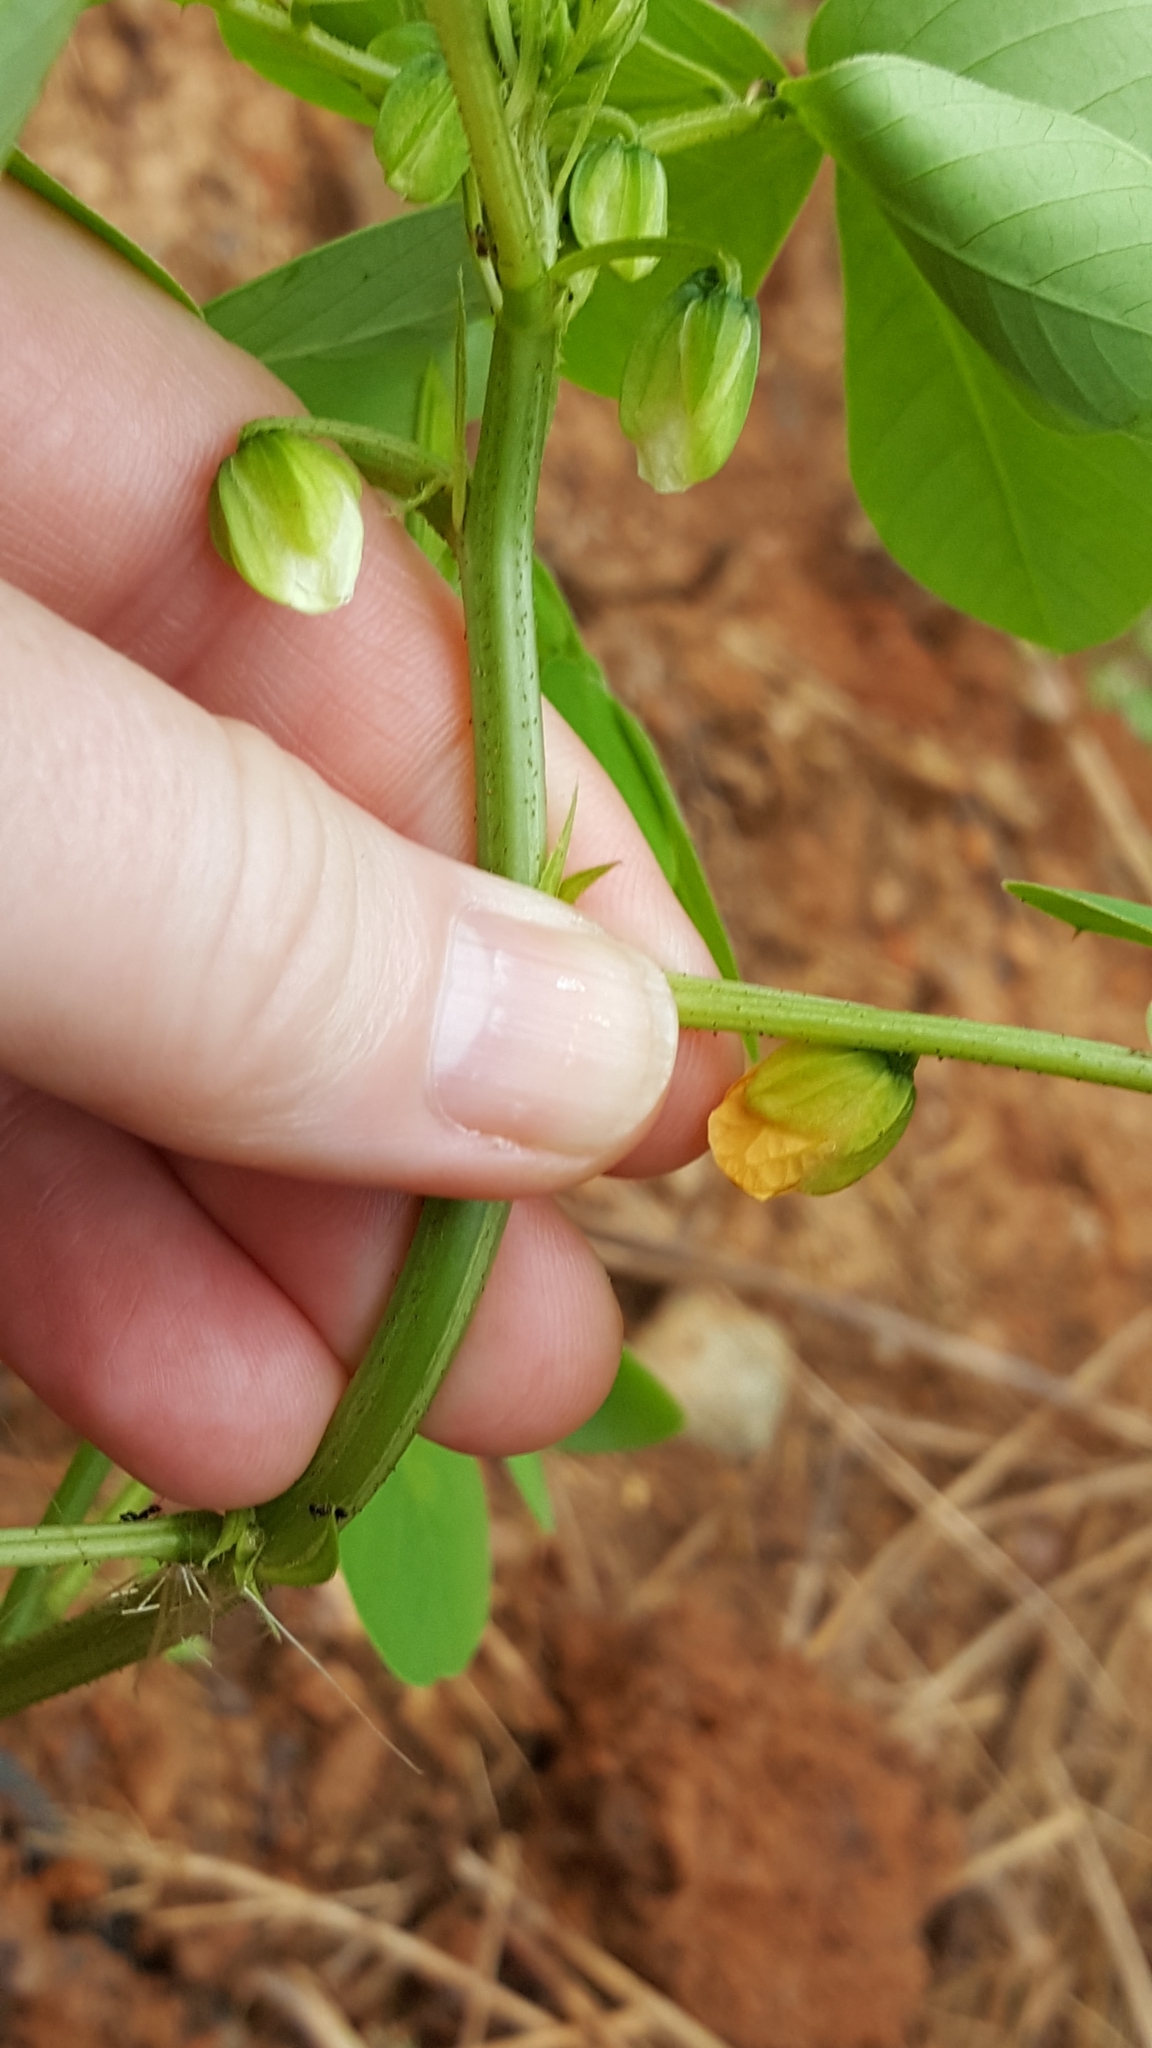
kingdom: Plantae
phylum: Tracheophyta
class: Magnoliopsida
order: Fabales
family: Fabaceae
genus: Senna
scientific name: Senna obtusifolia
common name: Java-bean
